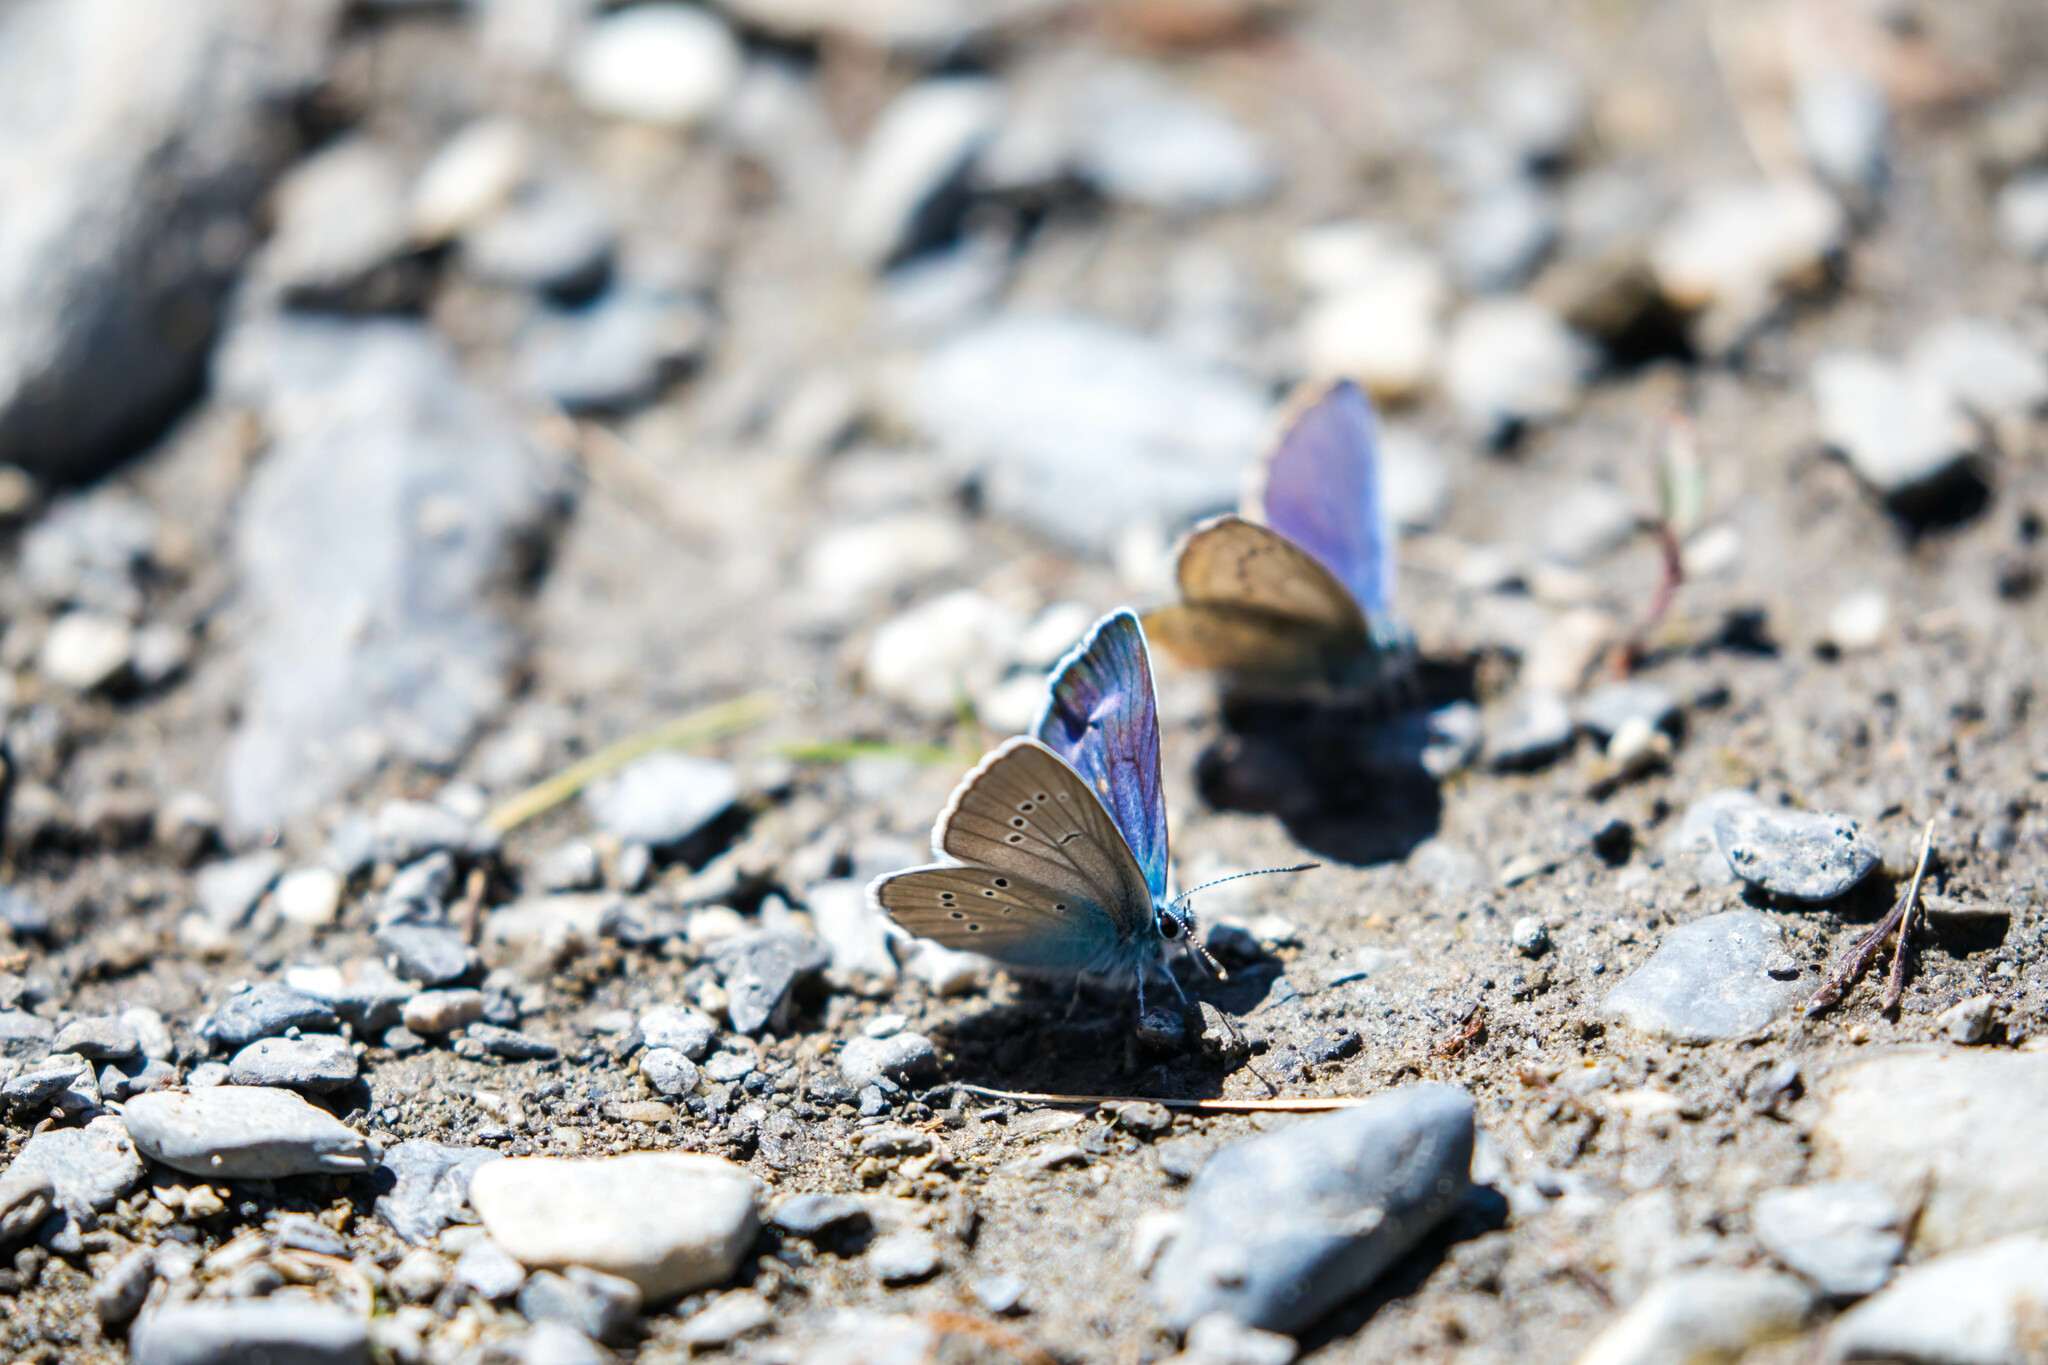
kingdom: Animalia
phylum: Arthropoda
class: Insecta
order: Lepidoptera
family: Lycaenidae
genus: Cyaniris
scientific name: Cyaniris semiargus
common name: Mazarine blue
